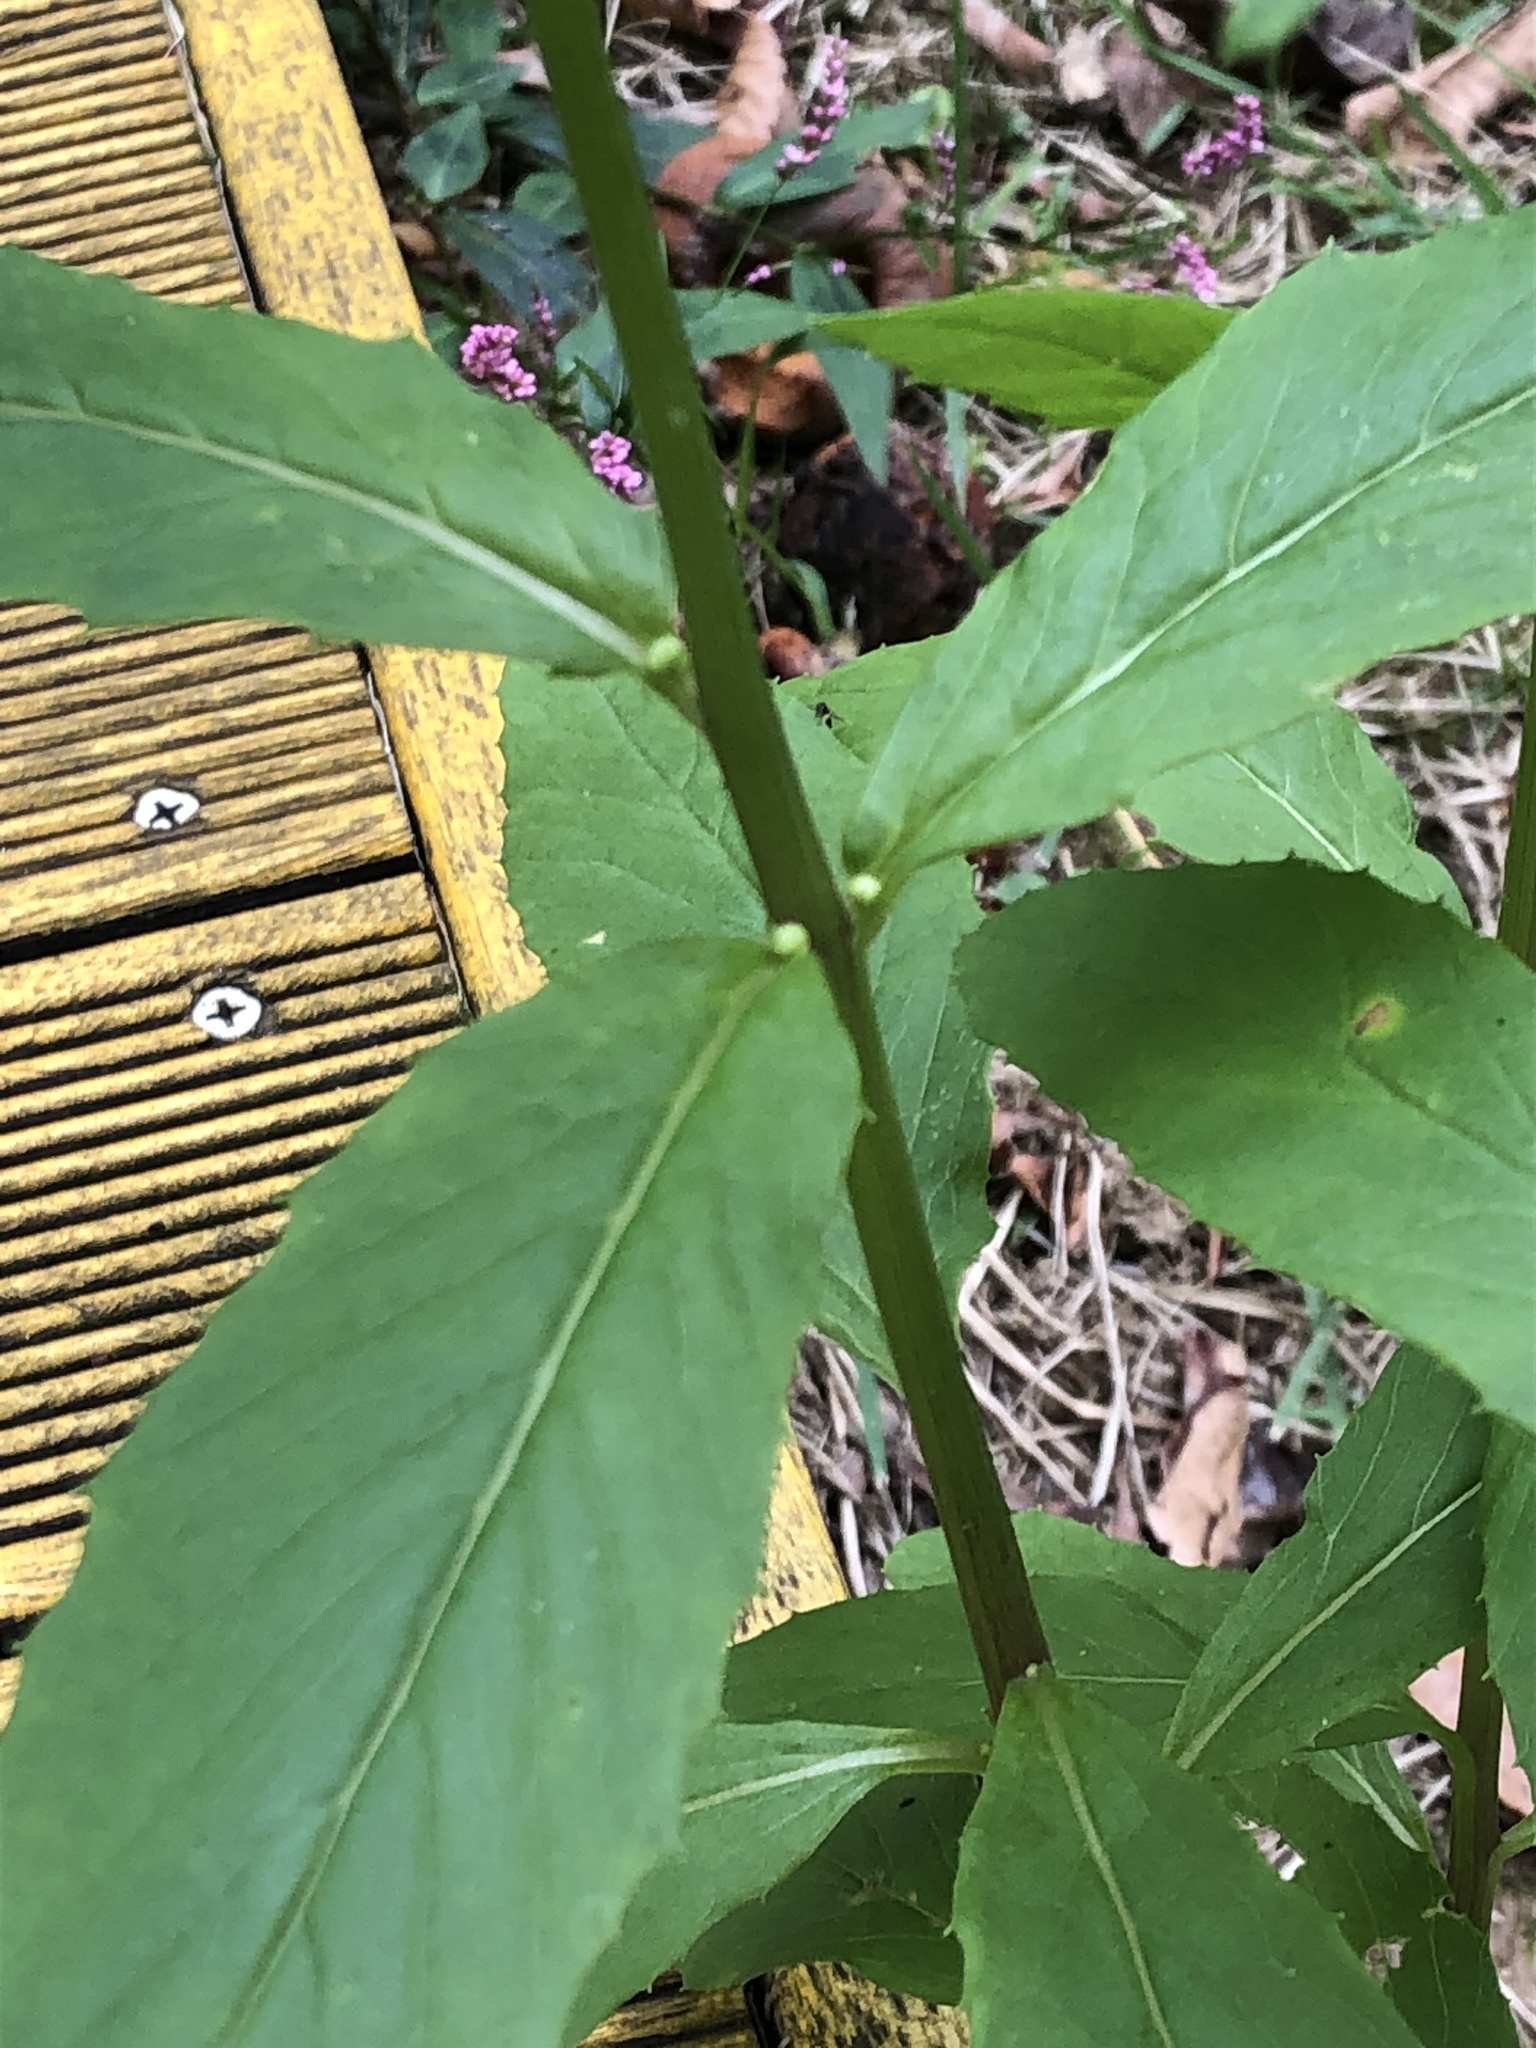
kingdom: Plantae
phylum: Tracheophyta
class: Magnoliopsida
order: Asterales
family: Asteraceae
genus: Erechtites
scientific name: Erechtites hieraciifolius
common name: American burnweed
